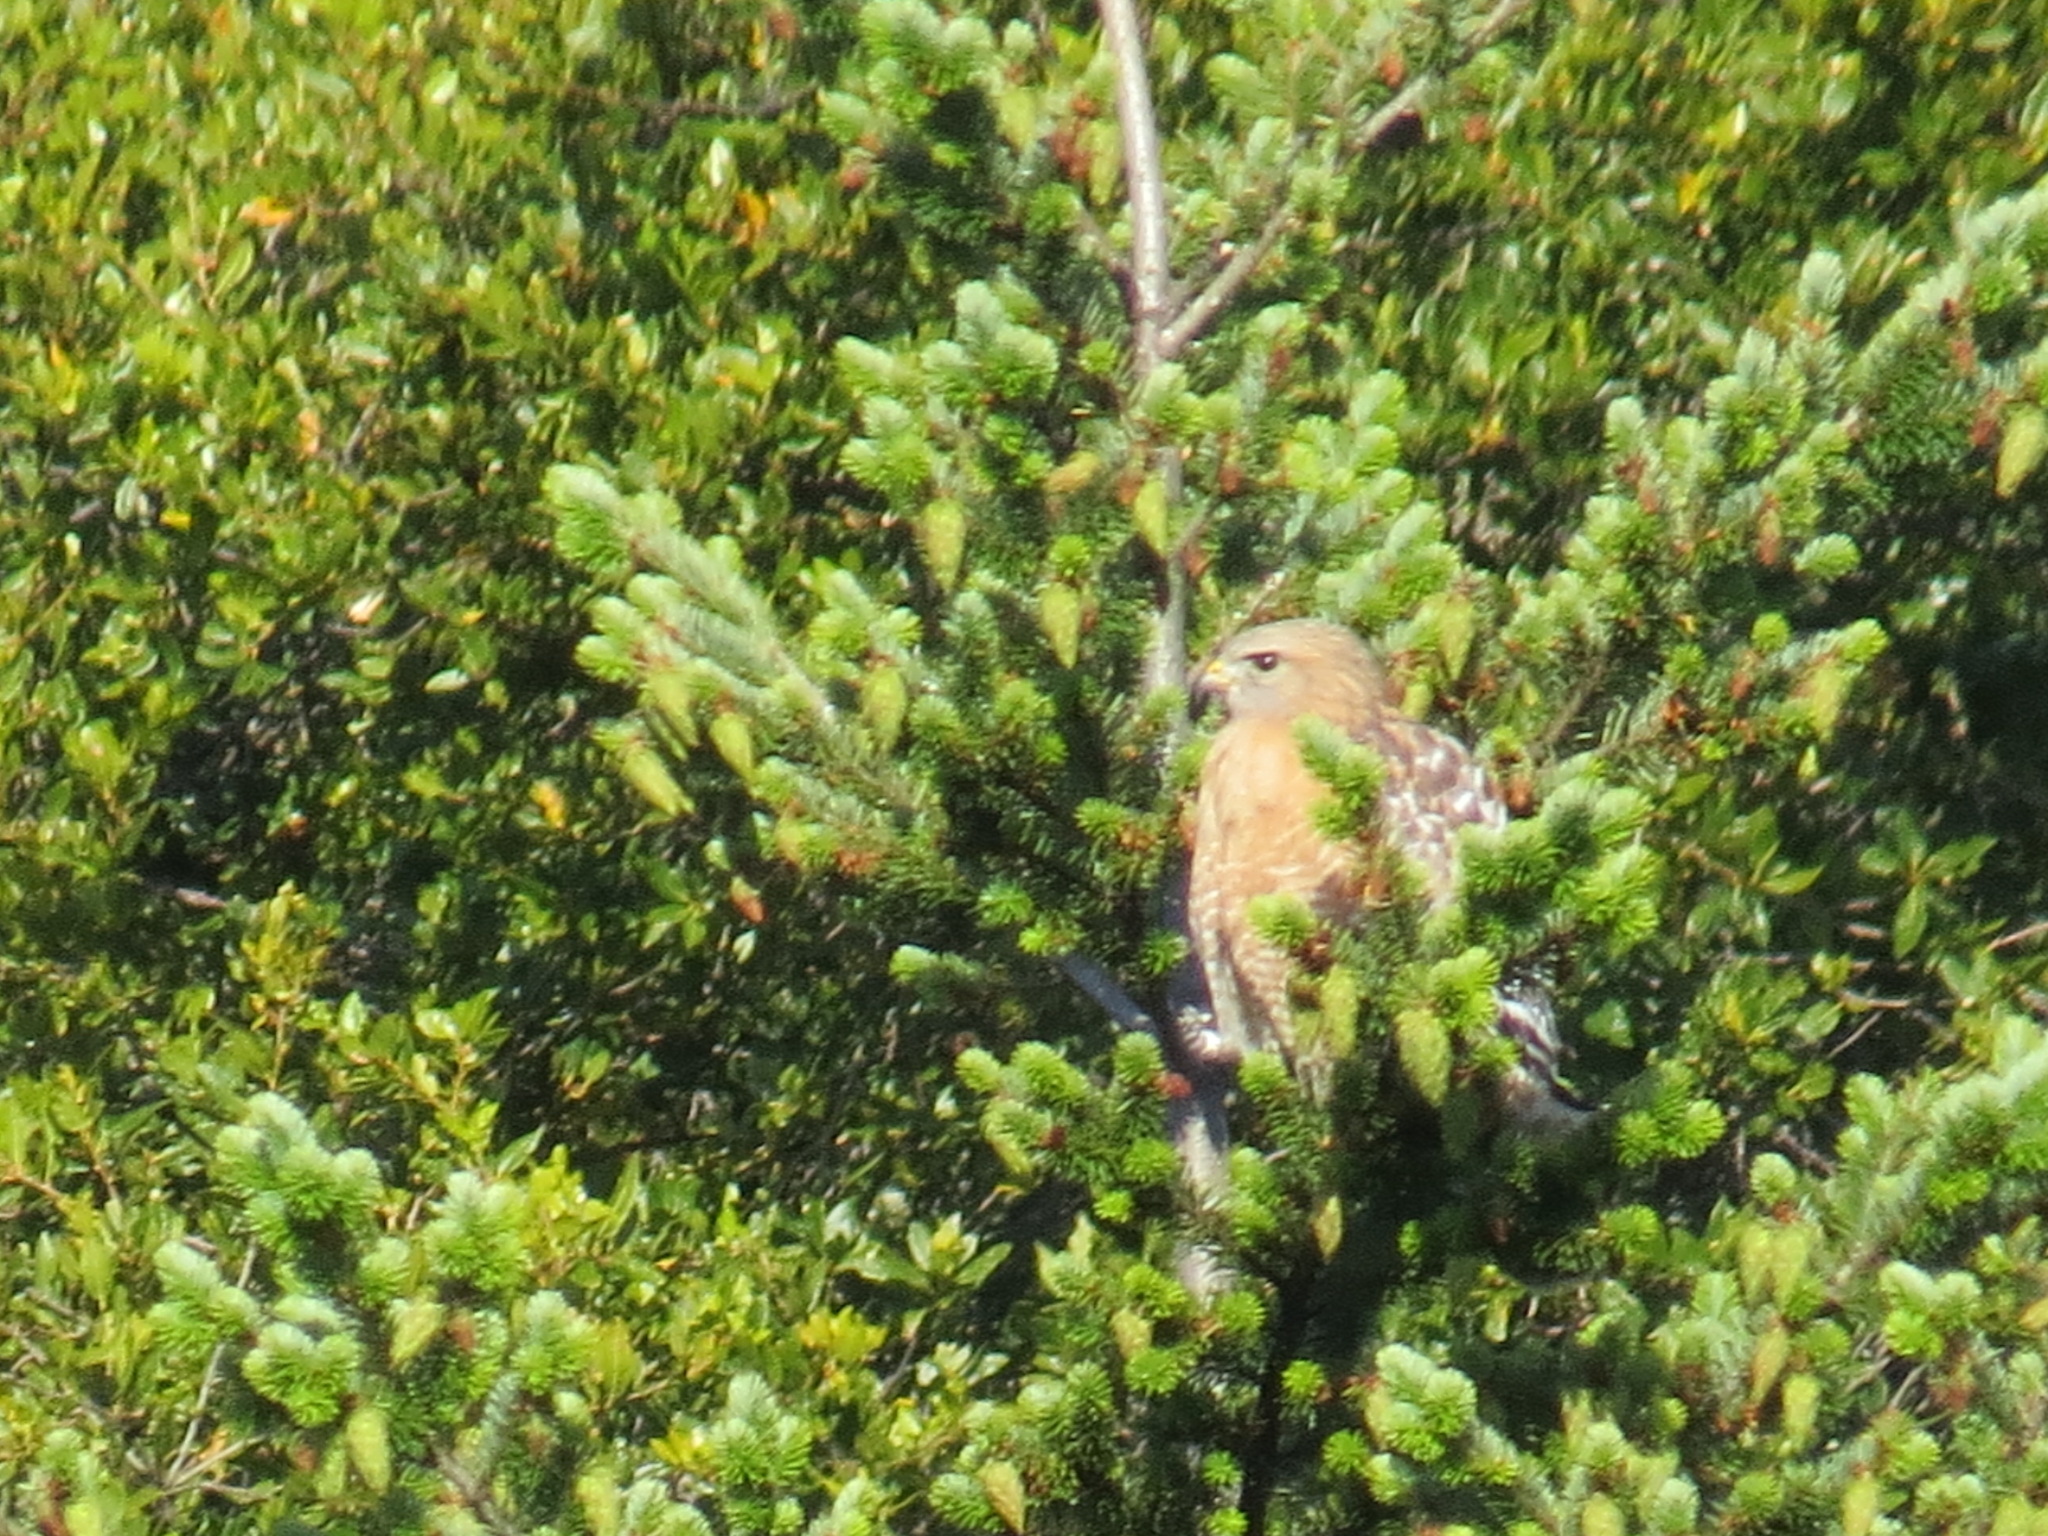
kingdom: Animalia
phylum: Chordata
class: Aves
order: Accipitriformes
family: Accipitridae
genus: Buteo
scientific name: Buteo lineatus
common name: Red-shouldered hawk
